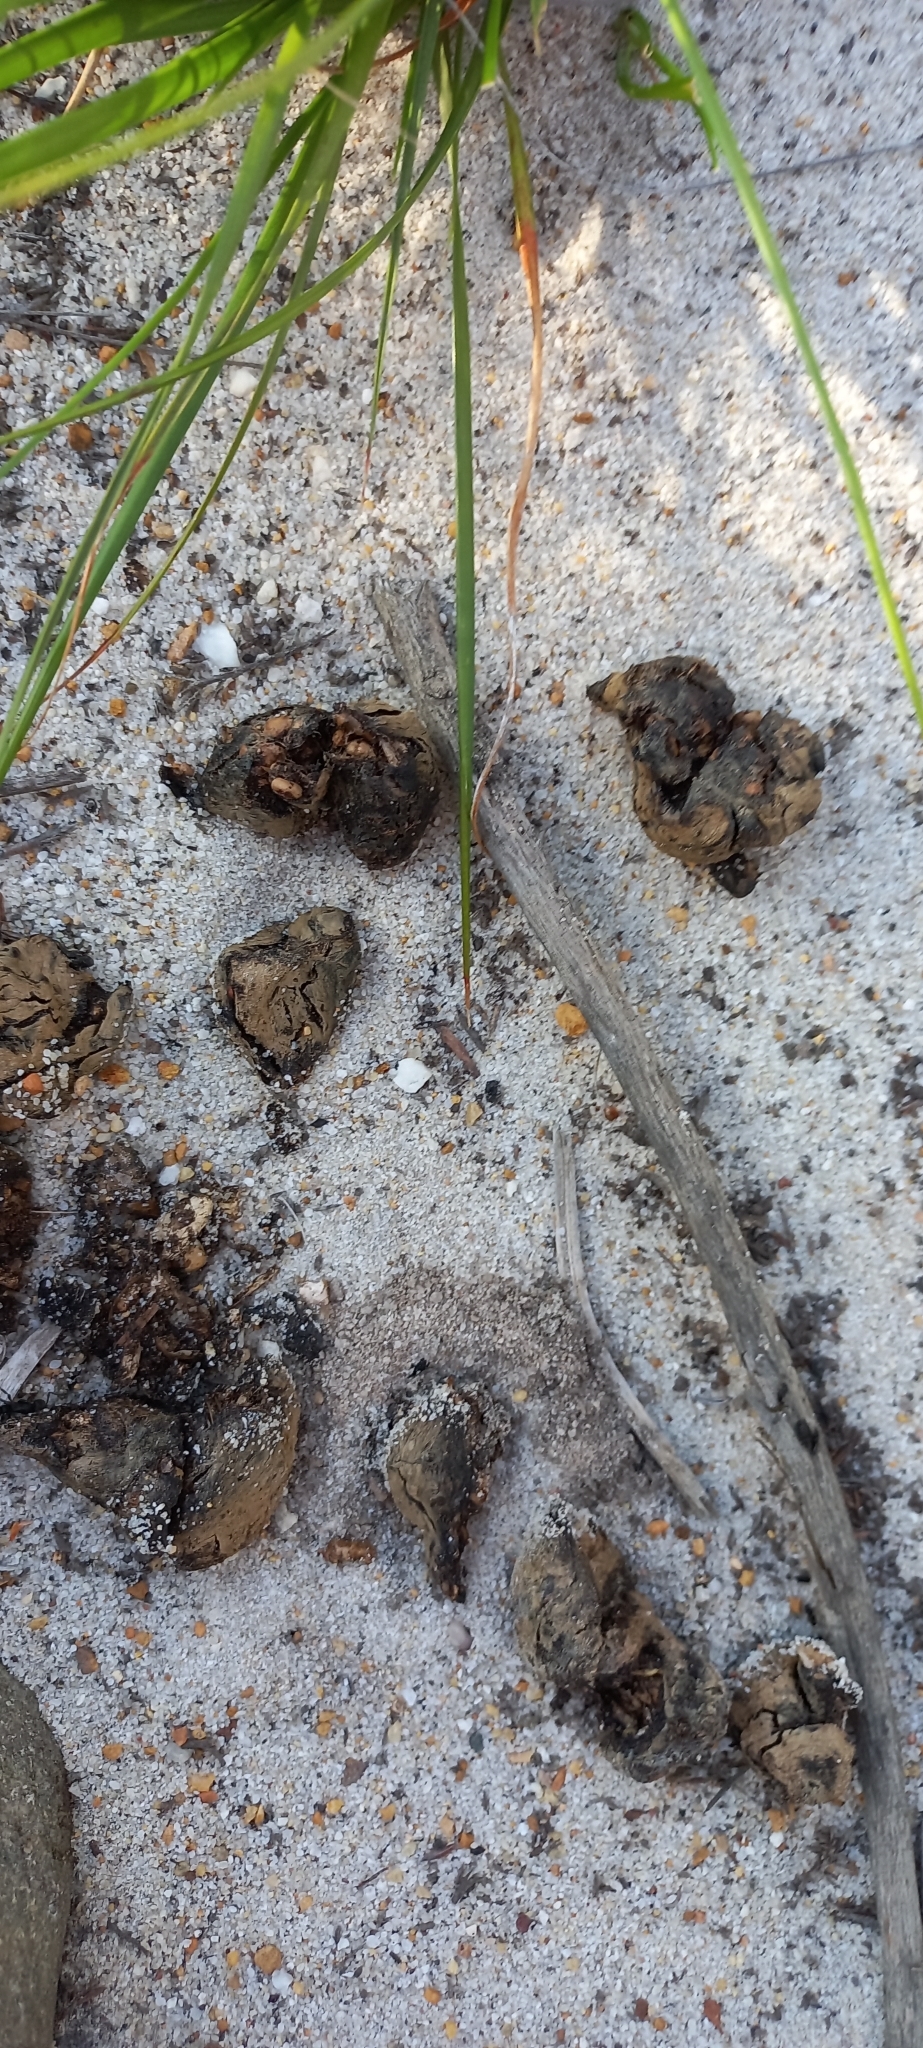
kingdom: Animalia
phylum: Chordata
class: Mammalia
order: Rodentia
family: Hystricidae
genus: Hystrix
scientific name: Hystrix africaeaustralis
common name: Cape porcupine
